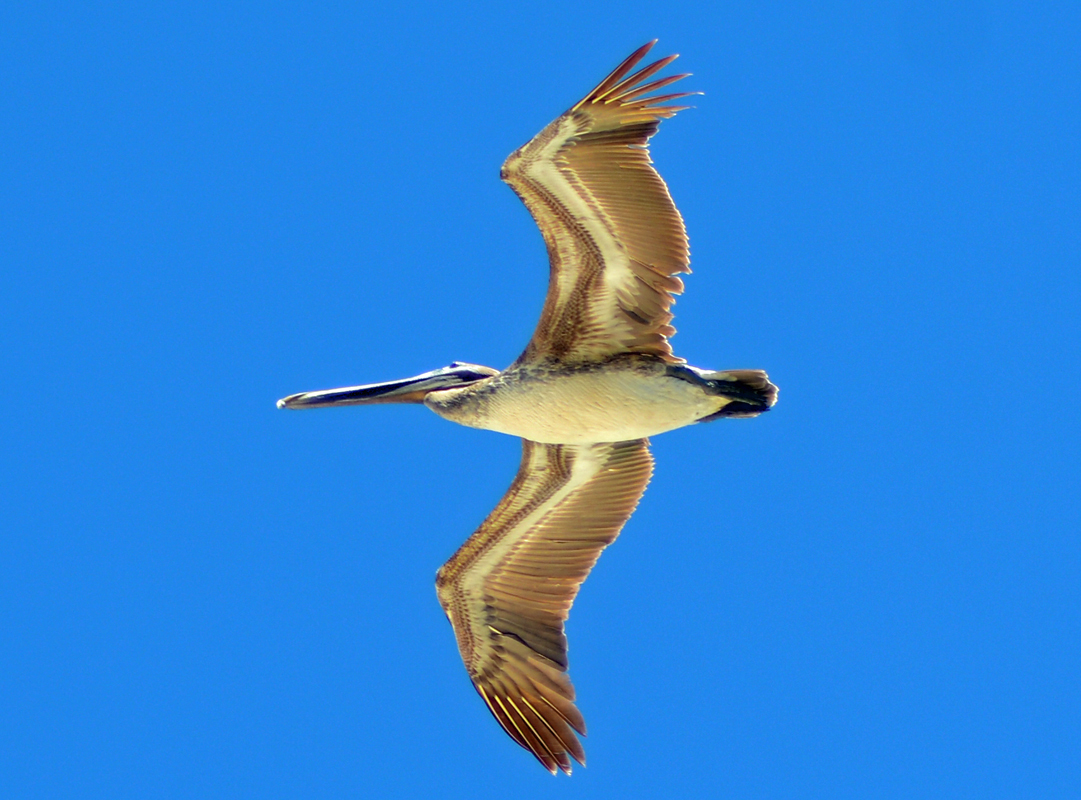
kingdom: Animalia
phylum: Chordata
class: Aves
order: Pelecaniformes
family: Pelecanidae
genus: Pelecanus
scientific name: Pelecanus occidentalis
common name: Brown pelican
